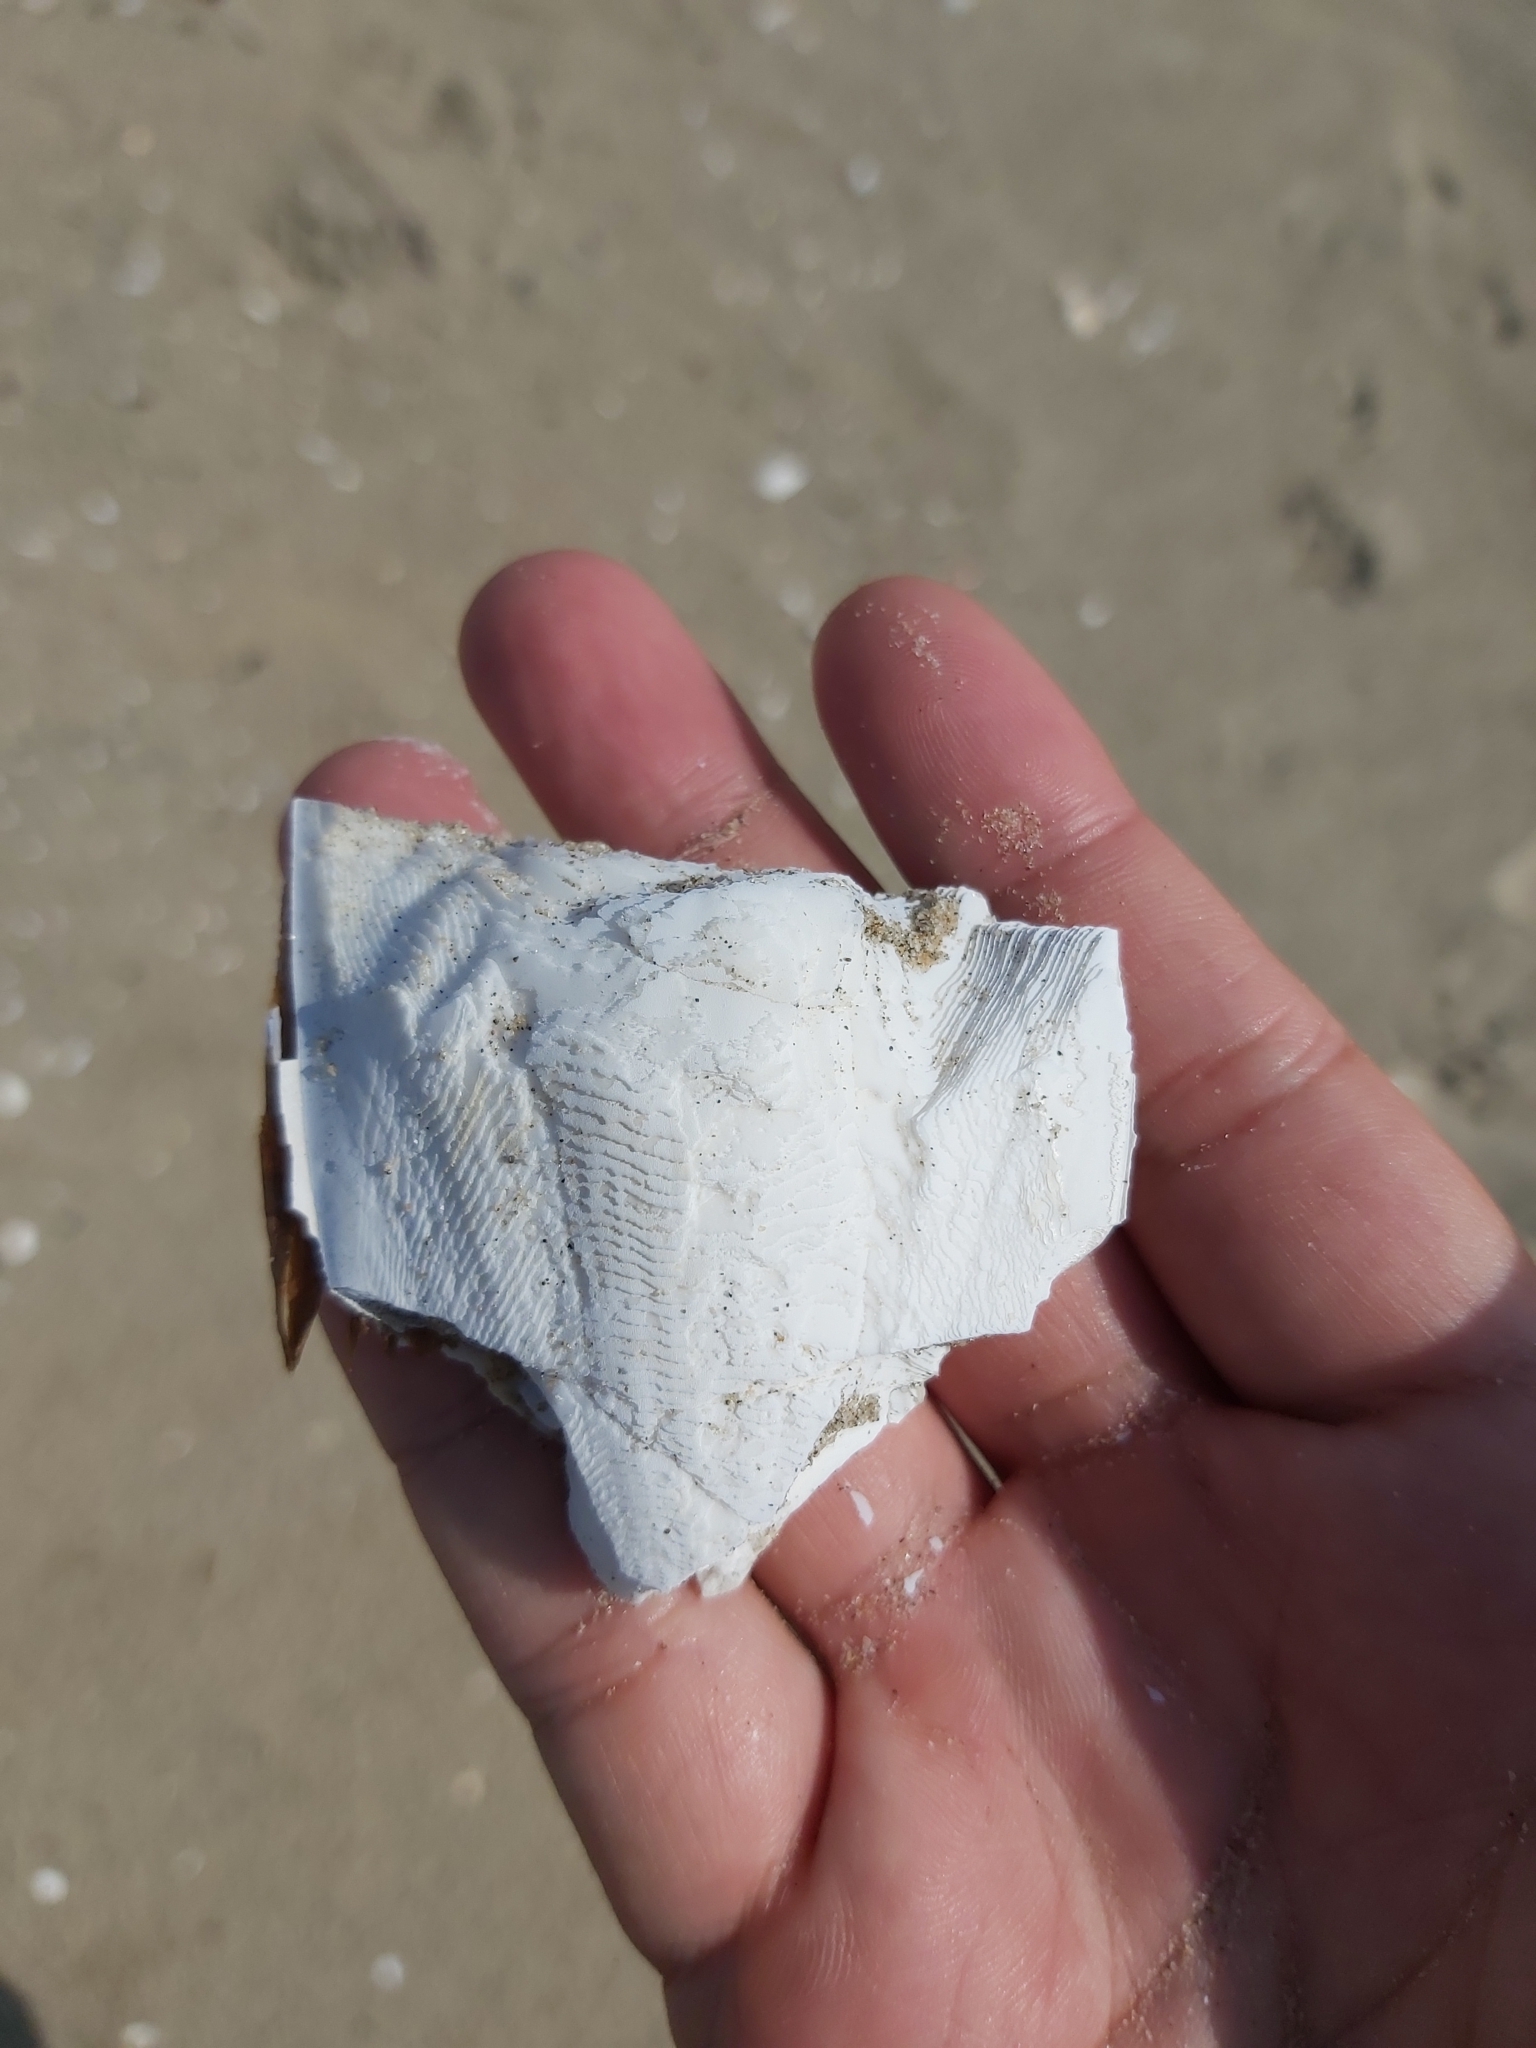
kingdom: Animalia
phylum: Mollusca
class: Cephalopoda
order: Sepiida
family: Sepiidae
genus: Sepia
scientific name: Sepia officinalis
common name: Common cuttlefish
